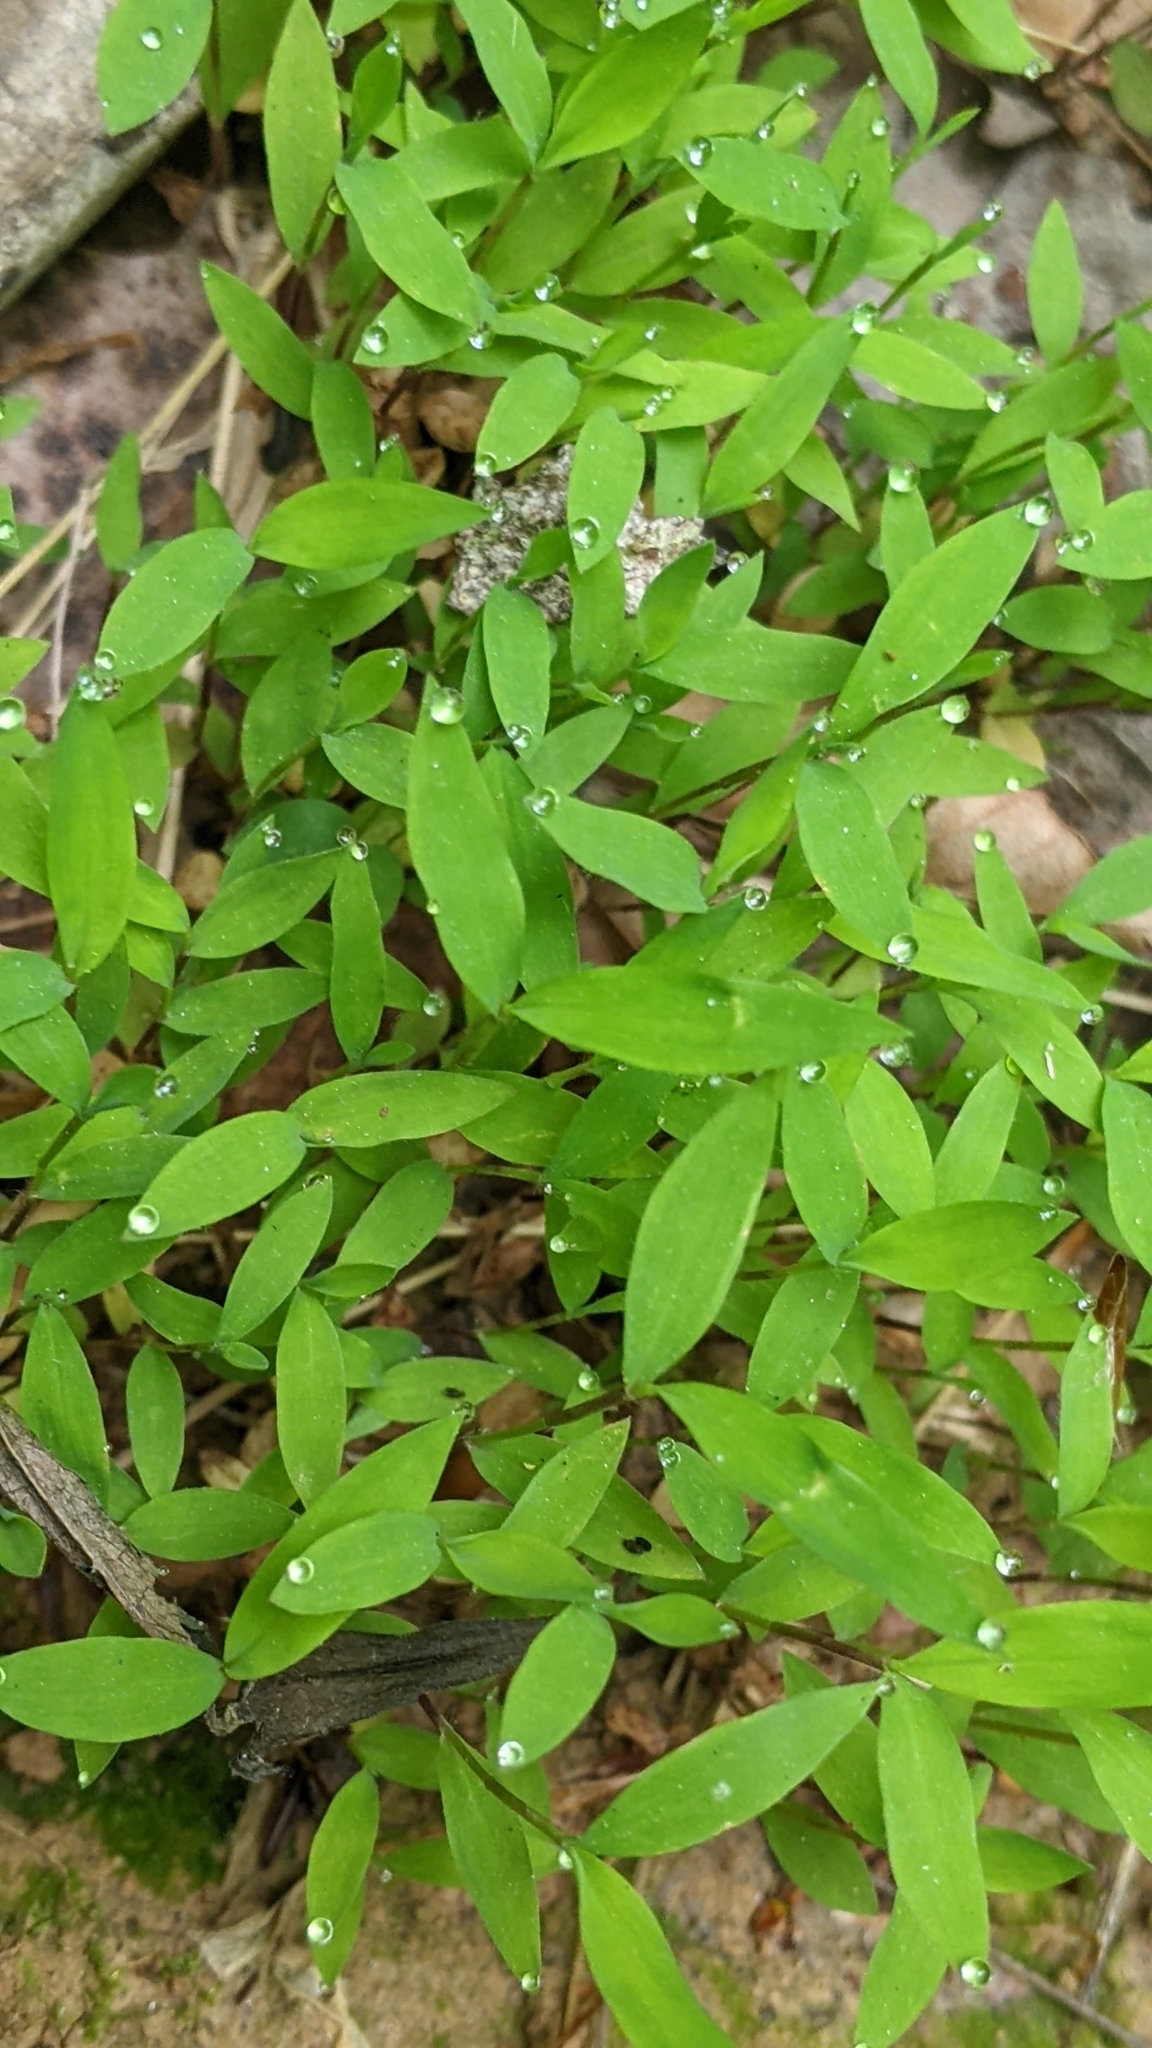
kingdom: Plantae
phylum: Tracheophyta
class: Liliopsida
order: Poales
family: Poaceae
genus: Microstegium
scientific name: Microstegium vimineum
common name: Japanese stiltgrass
